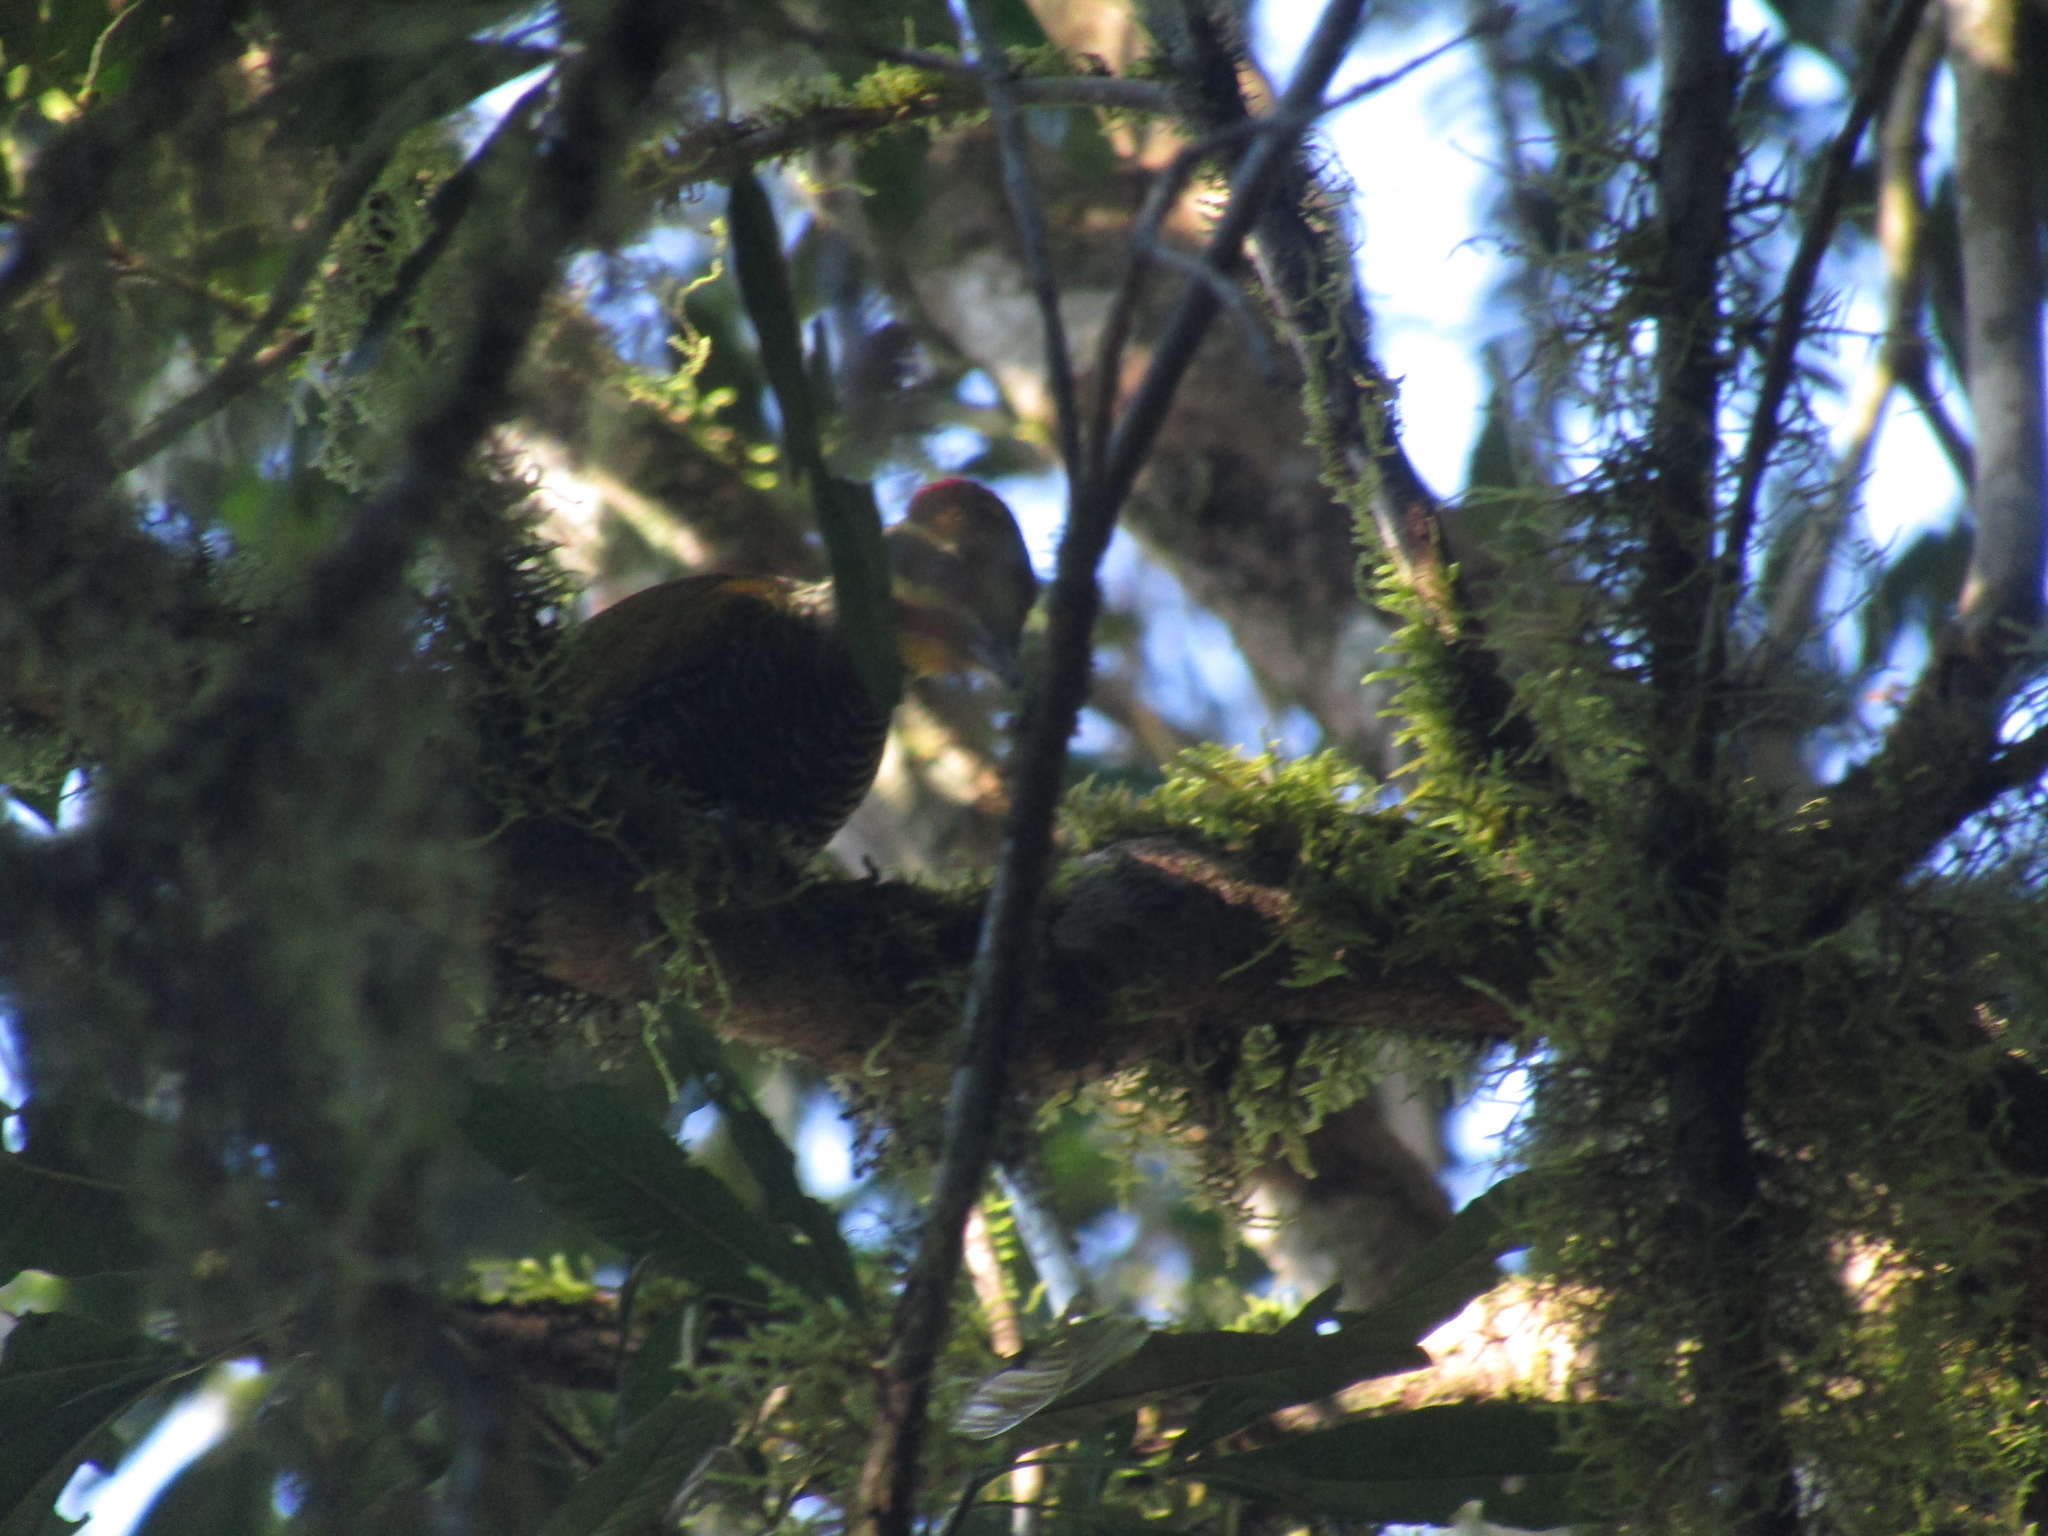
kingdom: Animalia
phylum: Chordata
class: Aves
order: Piciformes
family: Picidae
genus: Piculus
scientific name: Piculus aurulentus
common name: Yellow-browed woodpecker
